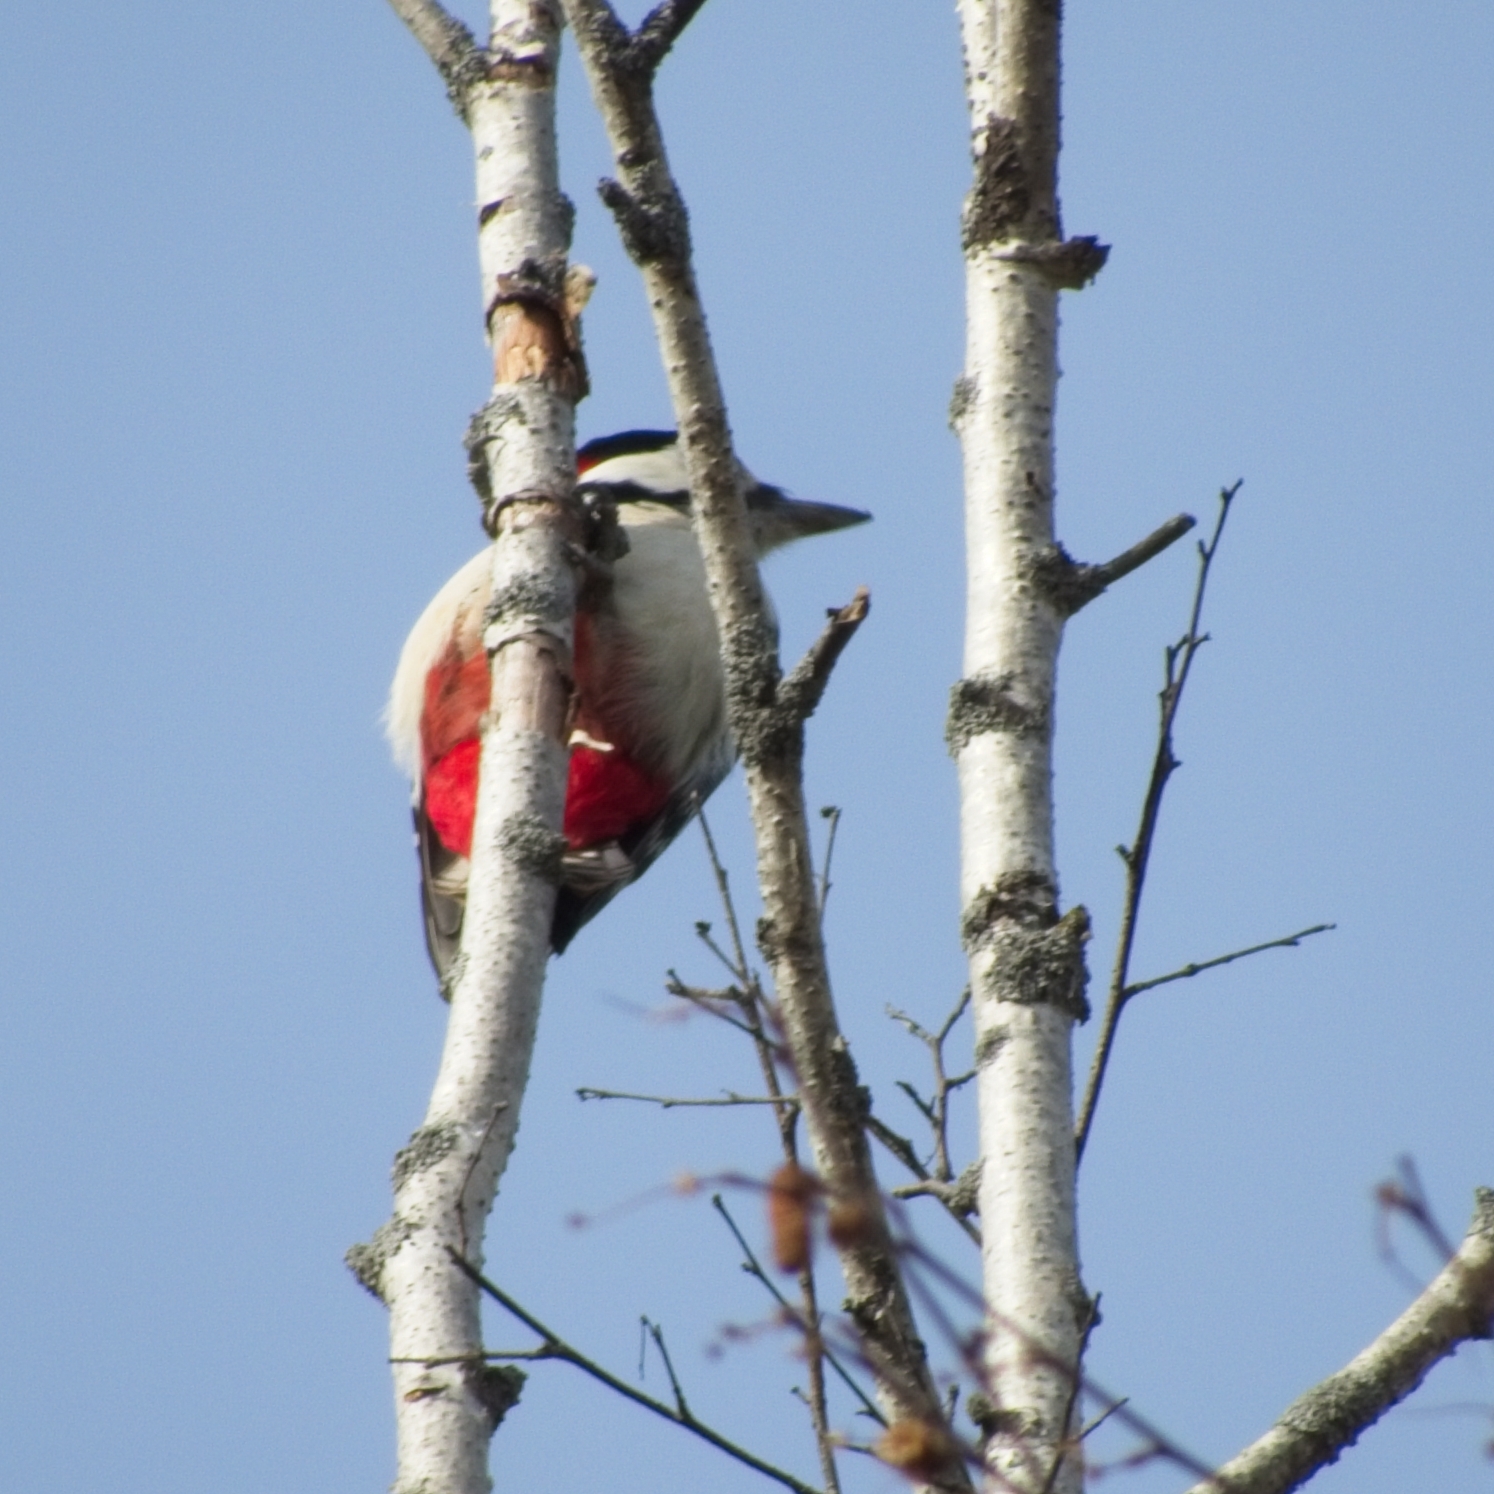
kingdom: Animalia
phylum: Chordata
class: Aves
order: Piciformes
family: Picidae
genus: Dendrocopos
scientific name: Dendrocopos major
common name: Great spotted woodpecker
